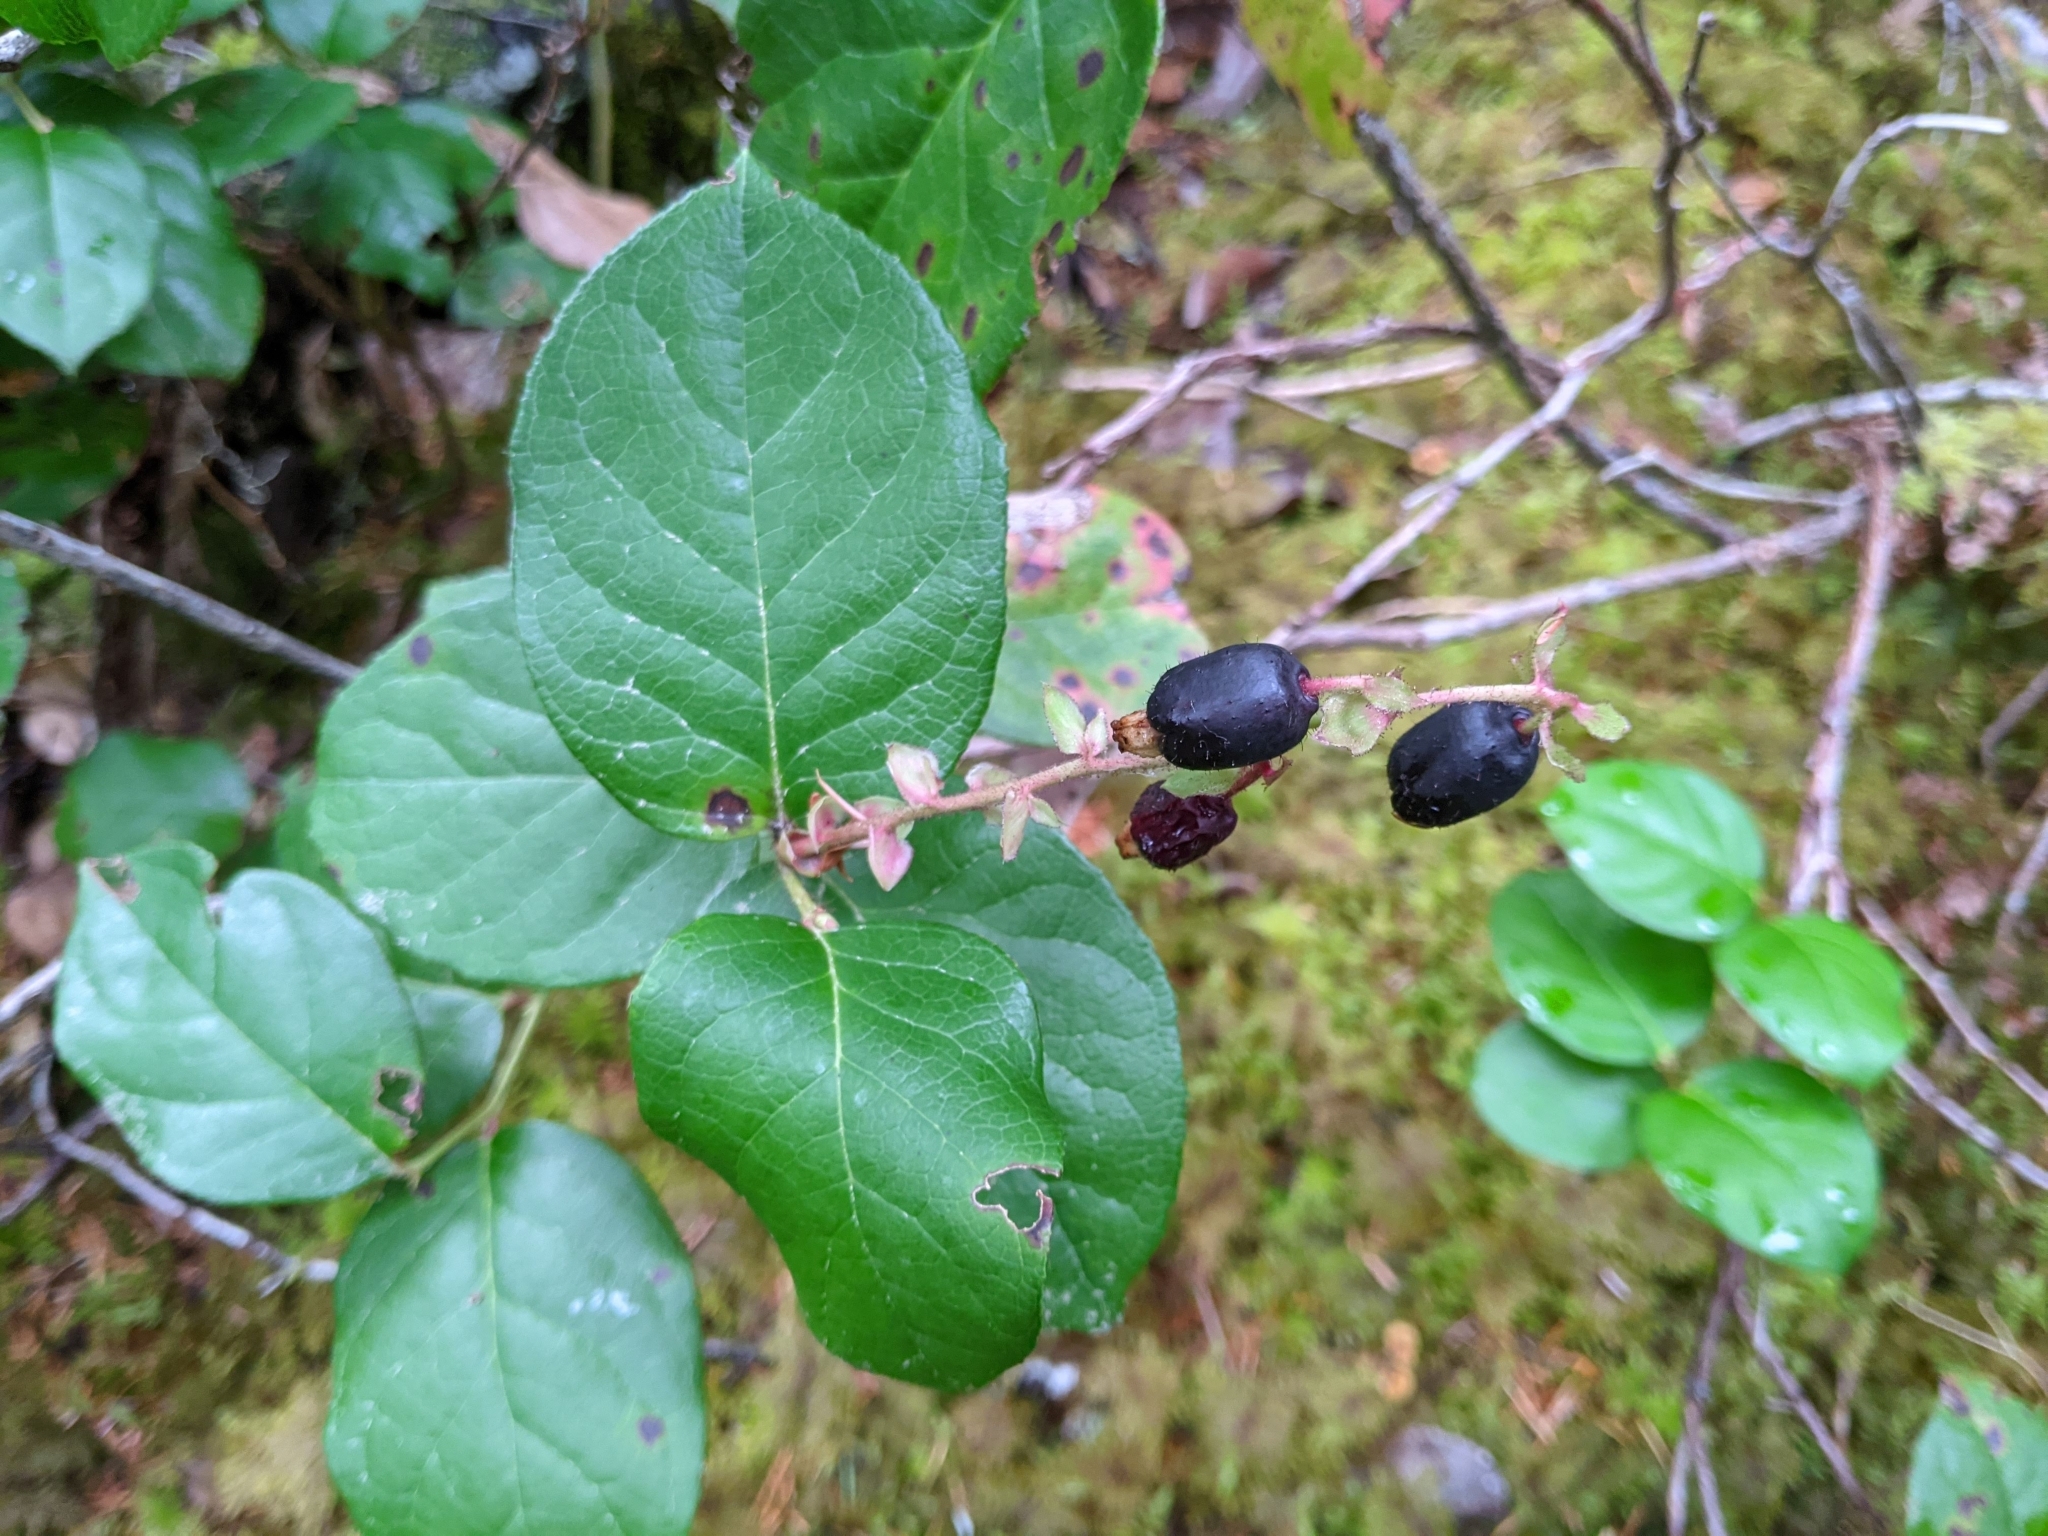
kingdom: Plantae
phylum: Tracheophyta
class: Magnoliopsida
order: Ericales
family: Ericaceae
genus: Gaultheria
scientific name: Gaultheria shallon
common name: Shallon
